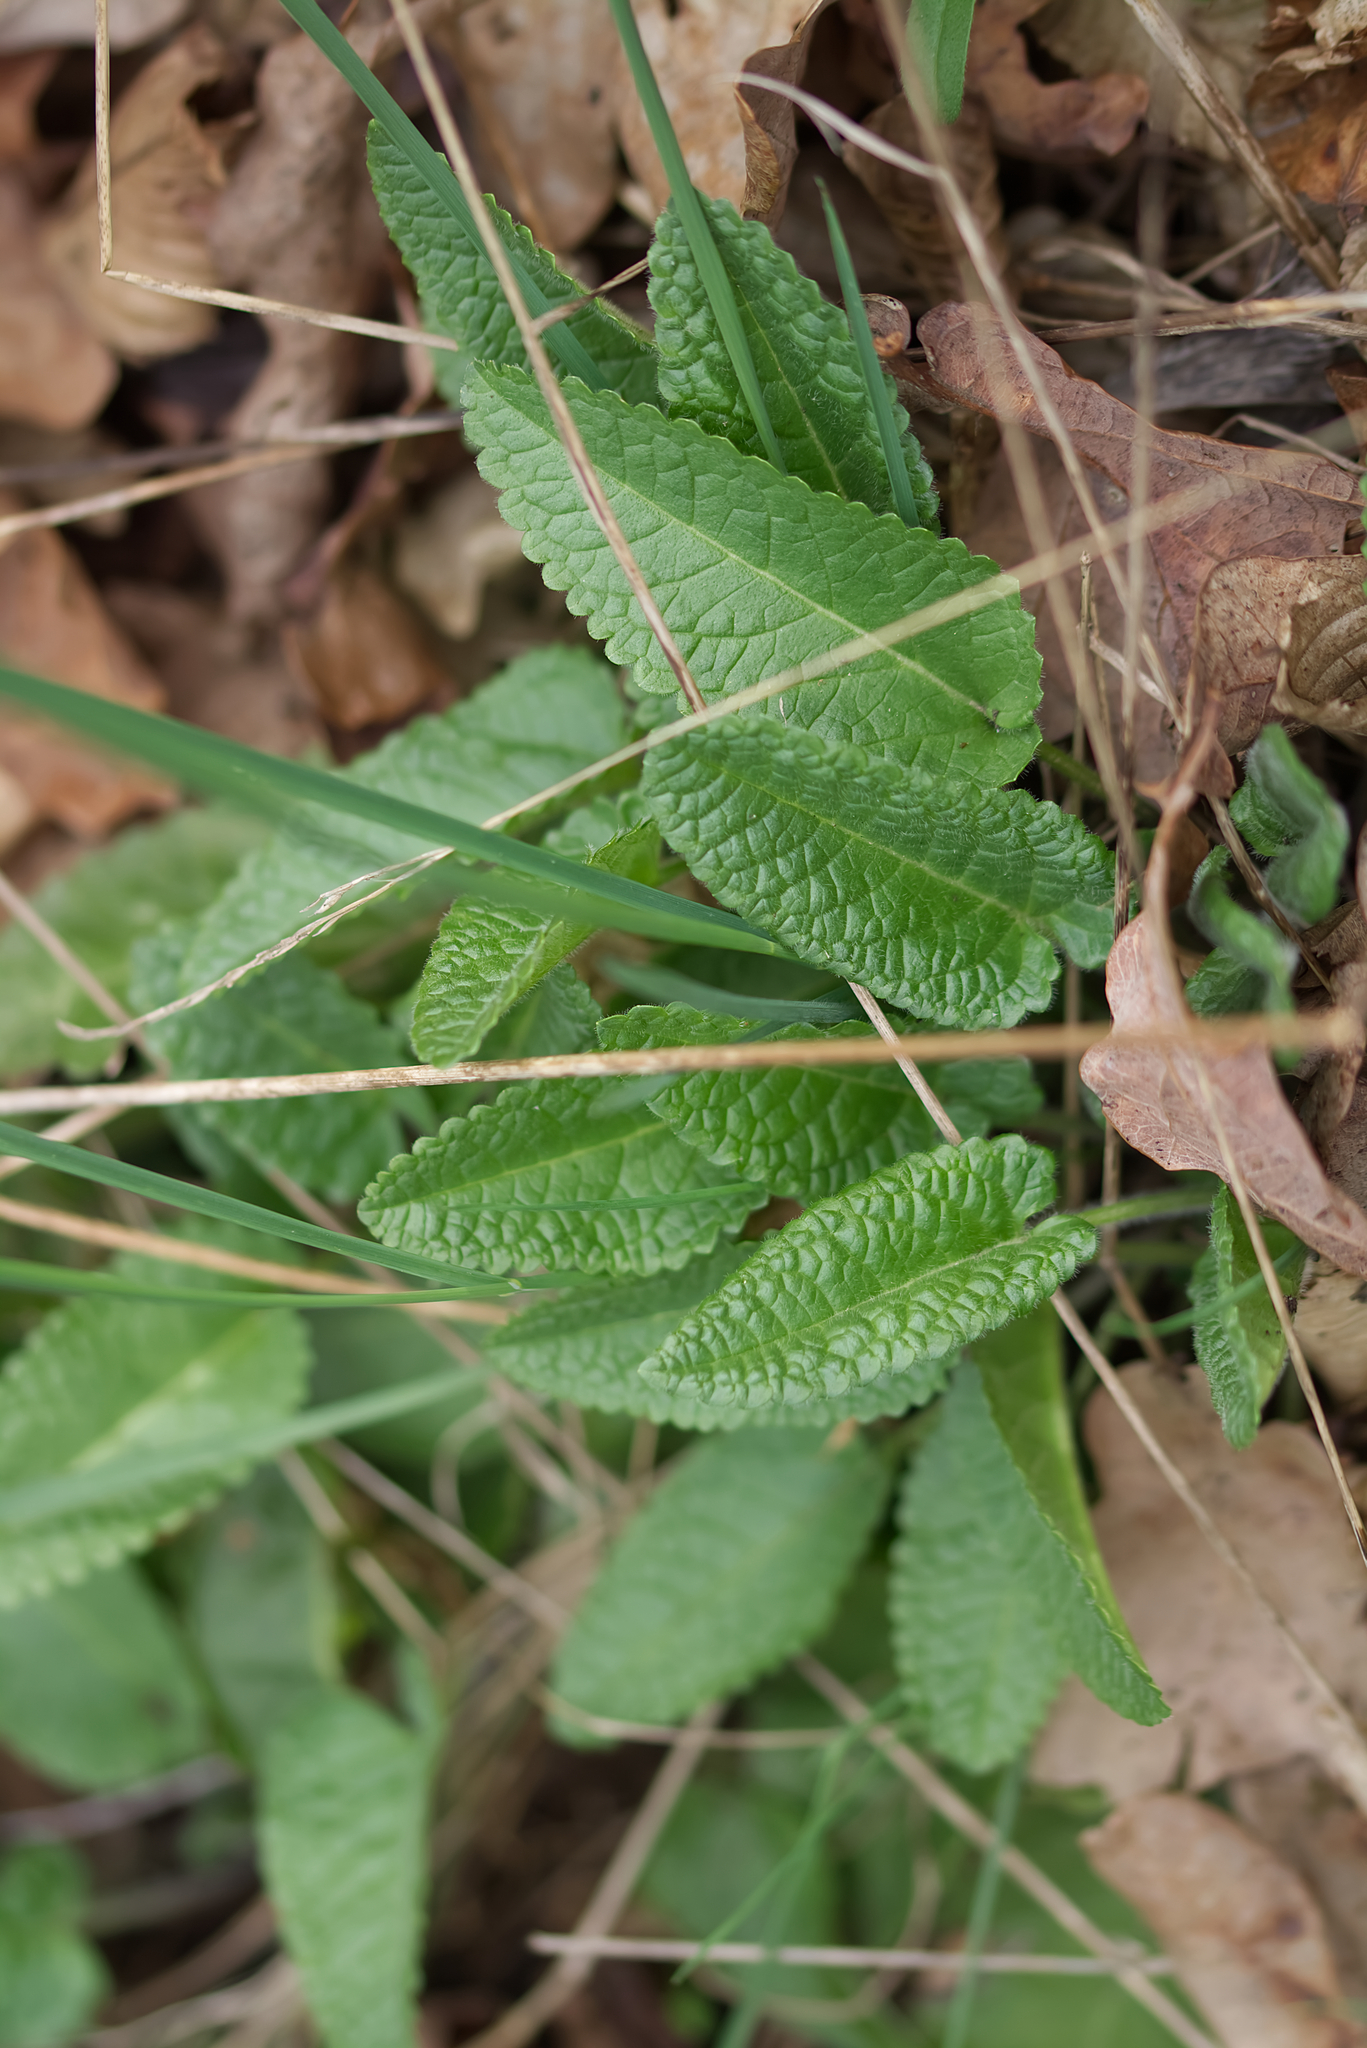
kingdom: Plantae
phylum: Tracheophyta
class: Magnoliopsida
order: Lamiales
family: Lamiaceae
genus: Betonica
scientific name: Betonica officinalis
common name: Bishop's-wort
